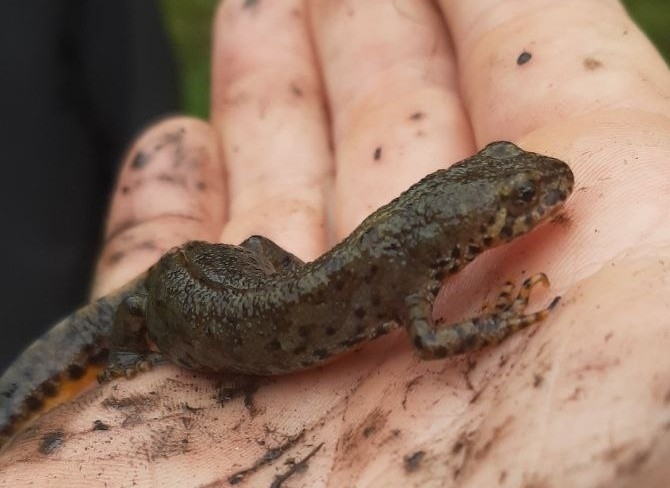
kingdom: Animalia
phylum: Chordata
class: Amphibia
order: Caudata
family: Salamandridae
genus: Ichthyosaura
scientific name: Ichthyosaura alpestris
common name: Alpine newt
